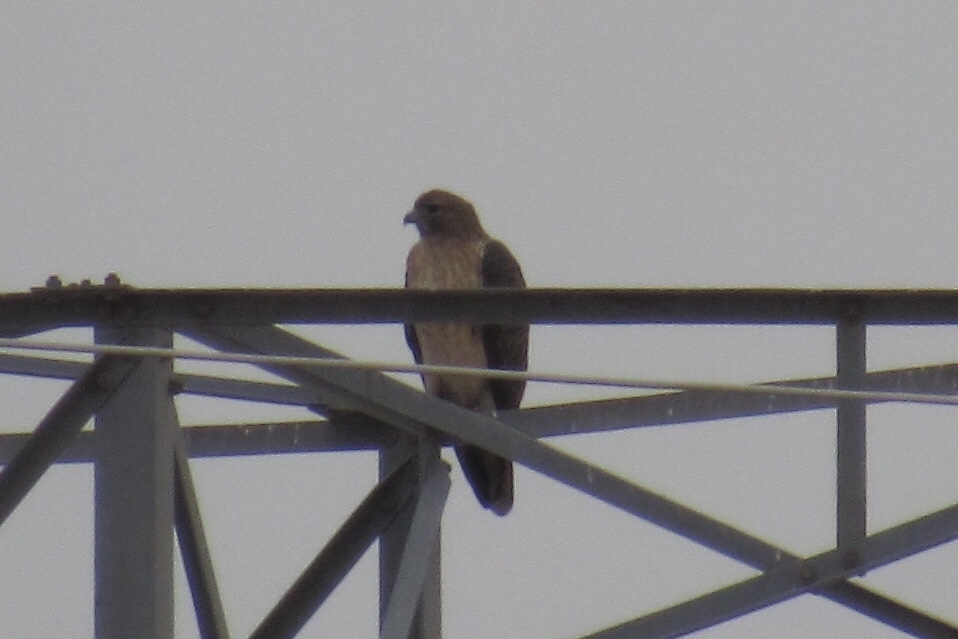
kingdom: Animalia
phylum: Chordata
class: Aves
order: Accipitriformes
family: Accipitridae
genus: Buteo
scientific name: Buteo jamaicensis
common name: Red-tailed hawk
